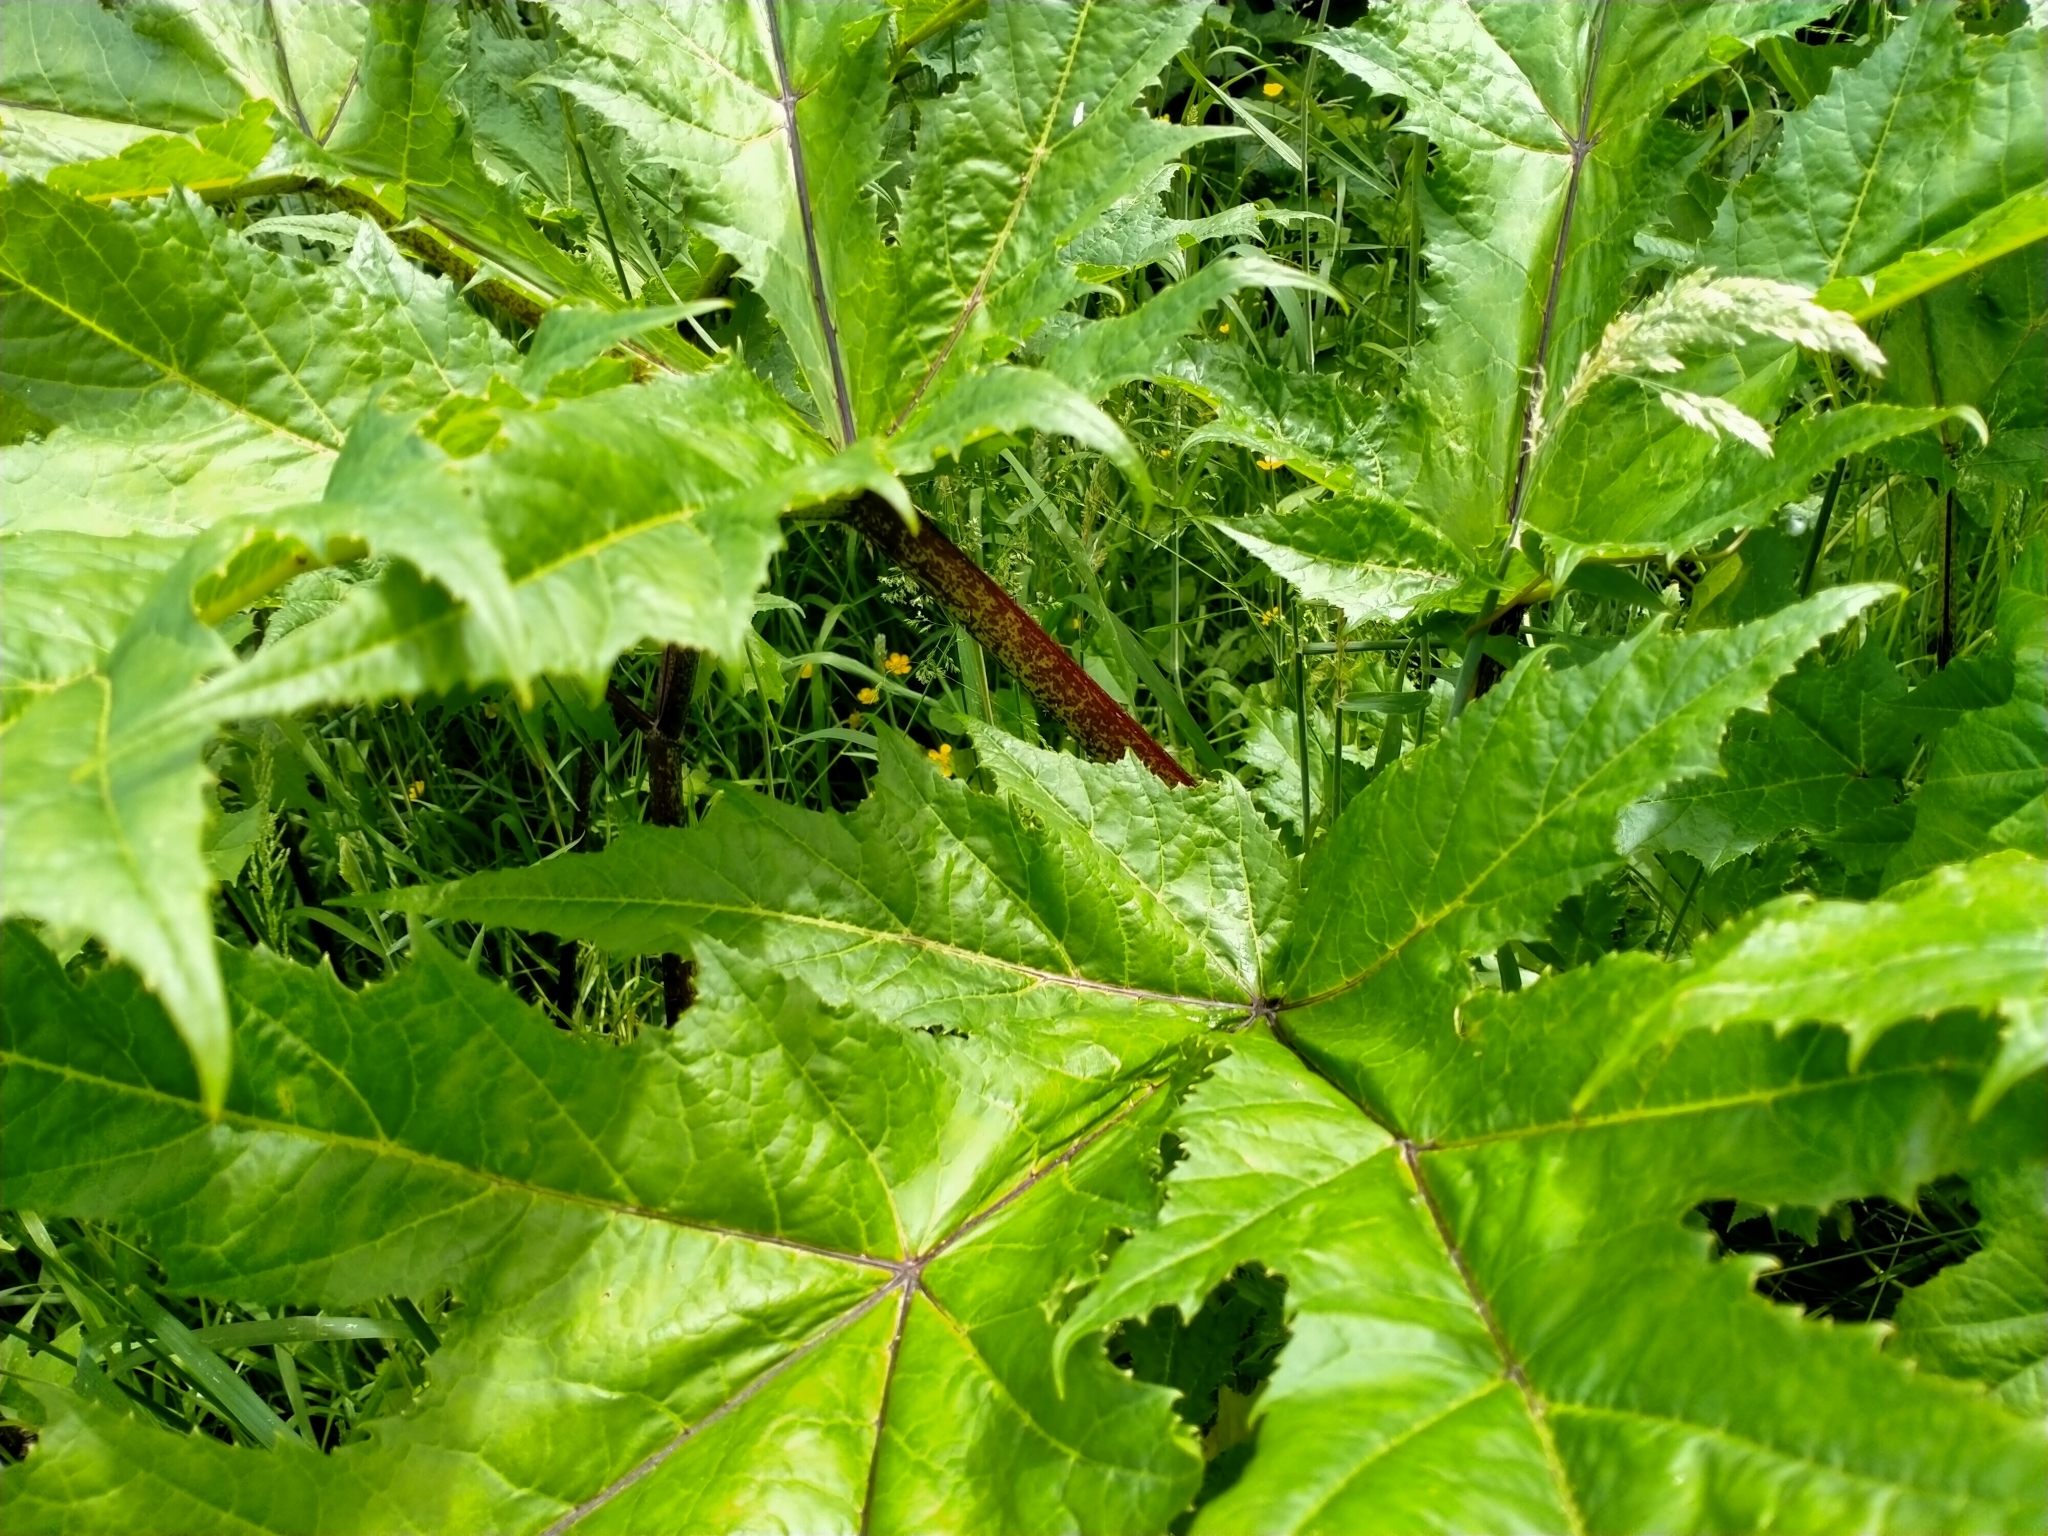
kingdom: Plantae
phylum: Tracheophyta
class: Magnoliopsida
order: Apiales
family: Apiaceae
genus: Heracleum
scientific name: Heracleum mantegazzianum
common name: Giant hogweed
